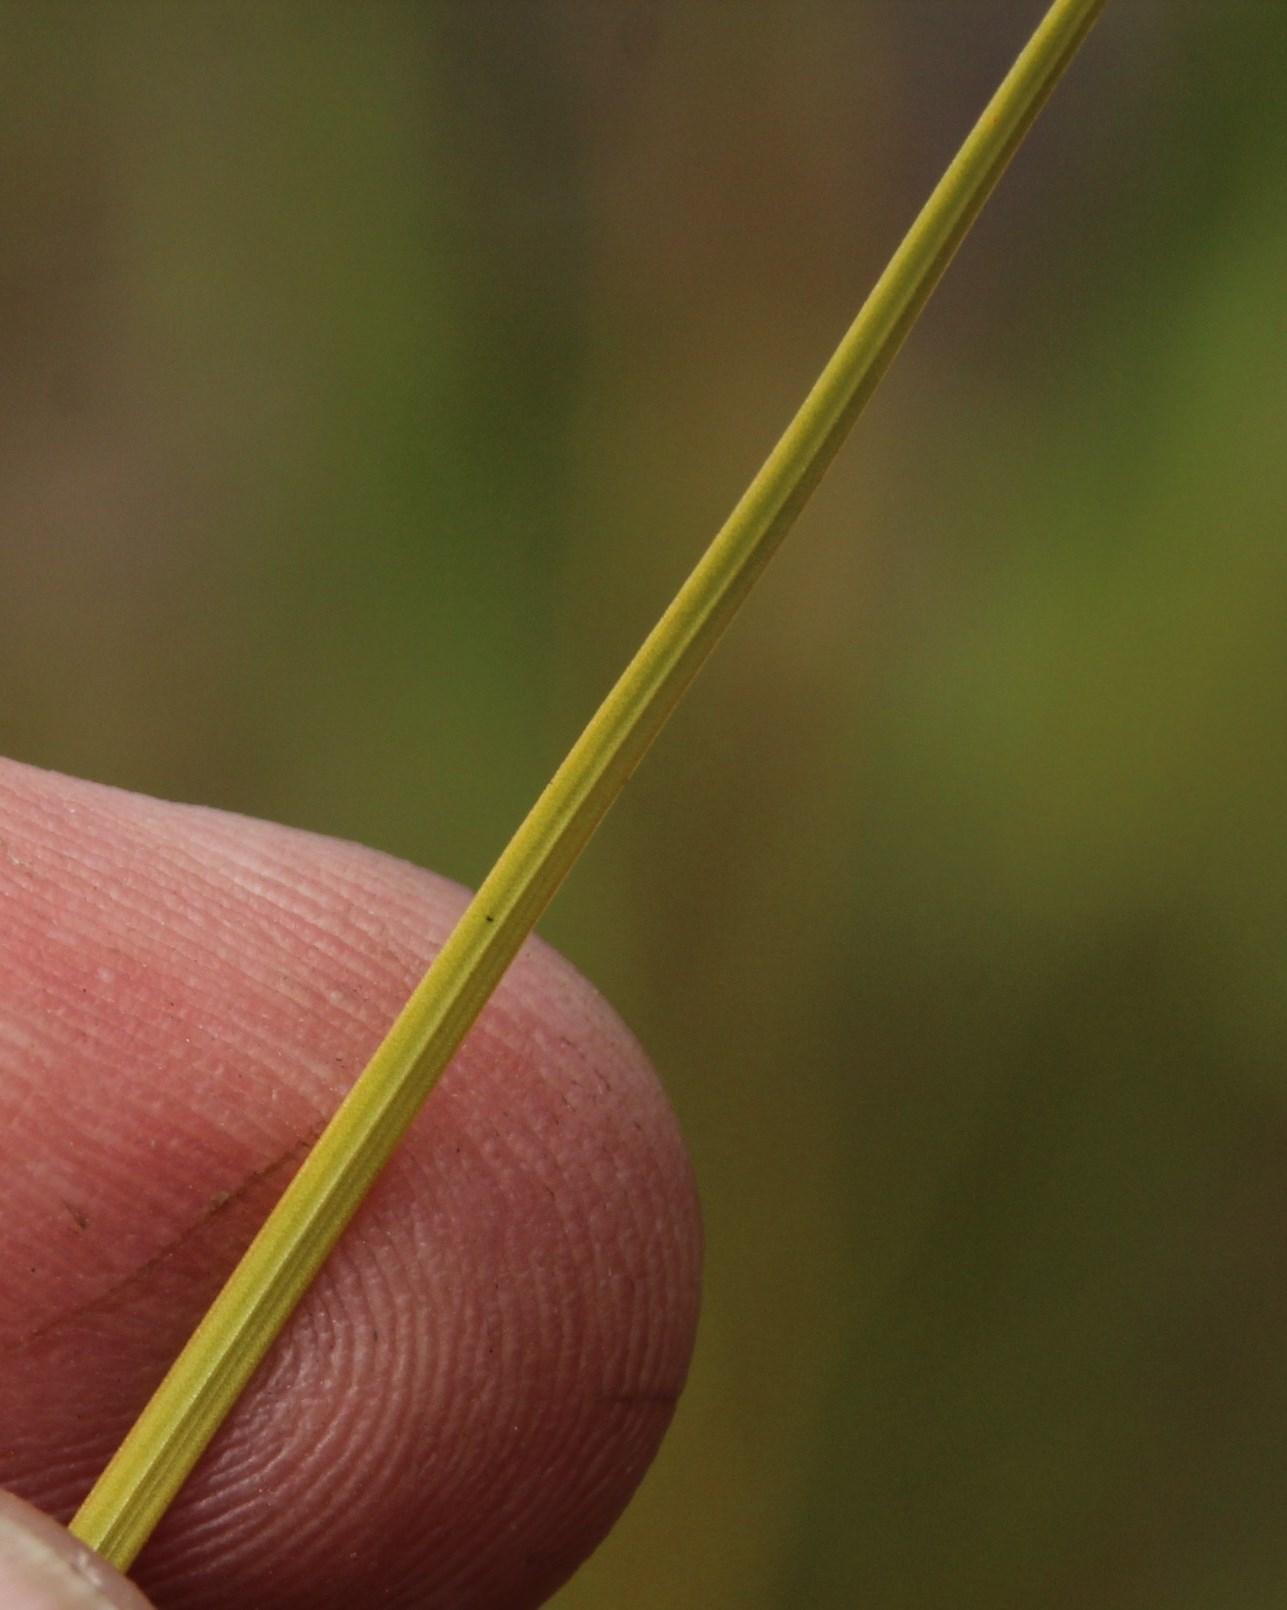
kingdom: Plantae
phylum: Tracheophyta
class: Liliopsida
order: Poales
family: Restionaceae
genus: Hypodiscus
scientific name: Hypodiscus willdenowia
